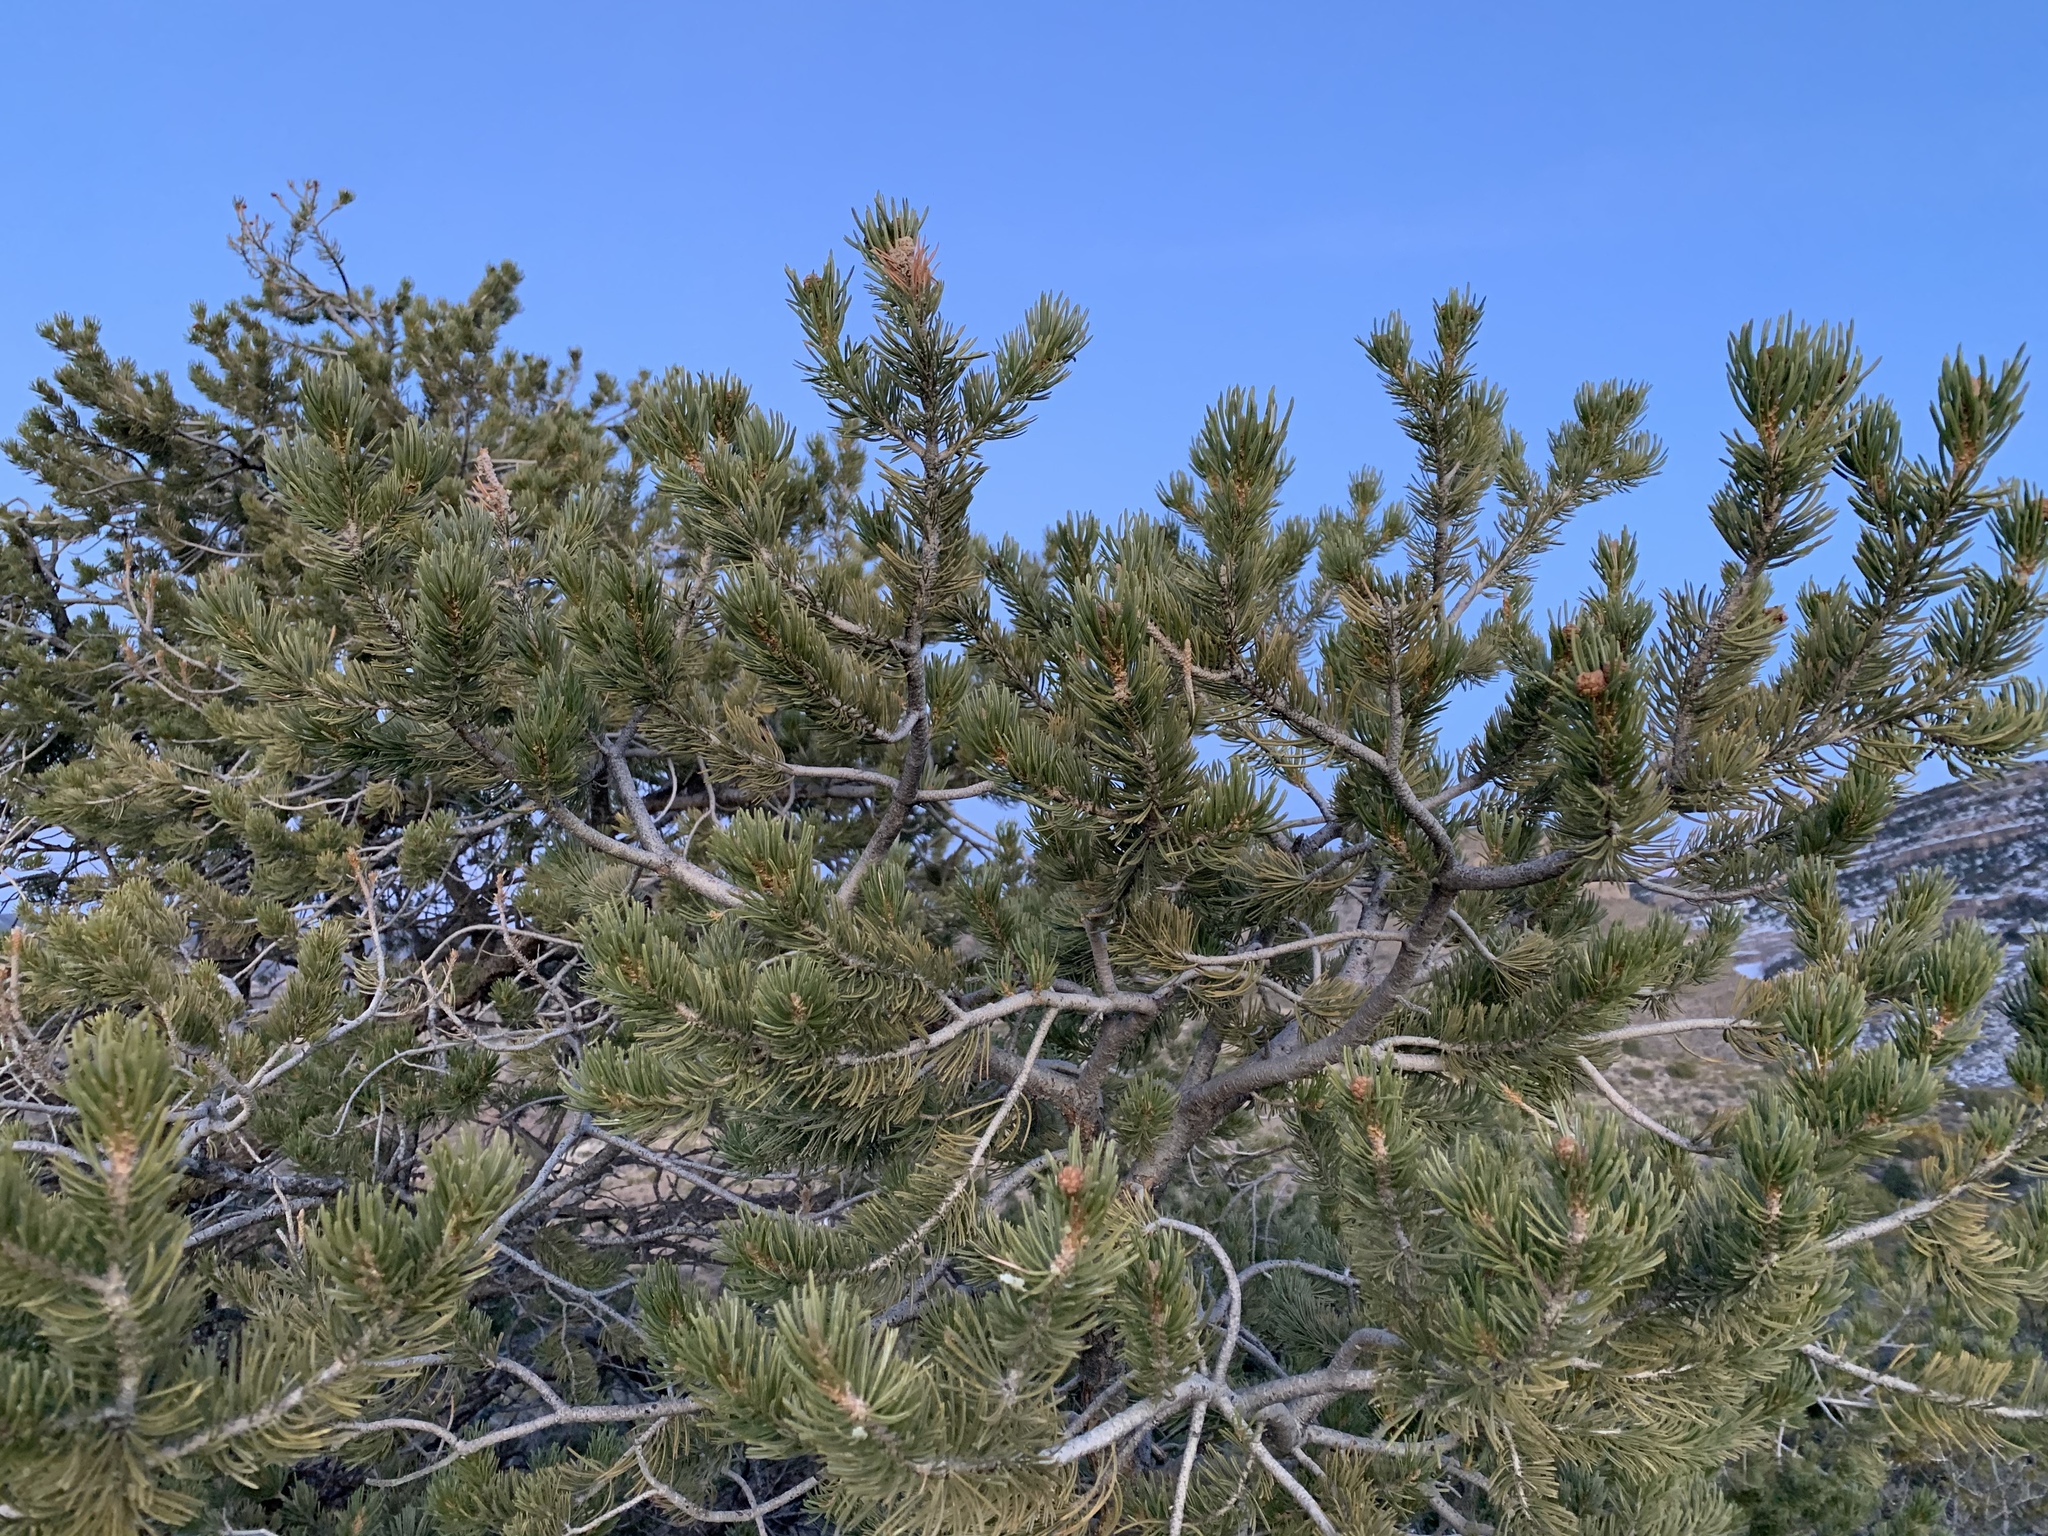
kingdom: Plantae
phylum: Tracheophyta
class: Pinopsida
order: Pinales
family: Pinaceae
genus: Pinus
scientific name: Pinus edulis
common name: Colorado pinyon
